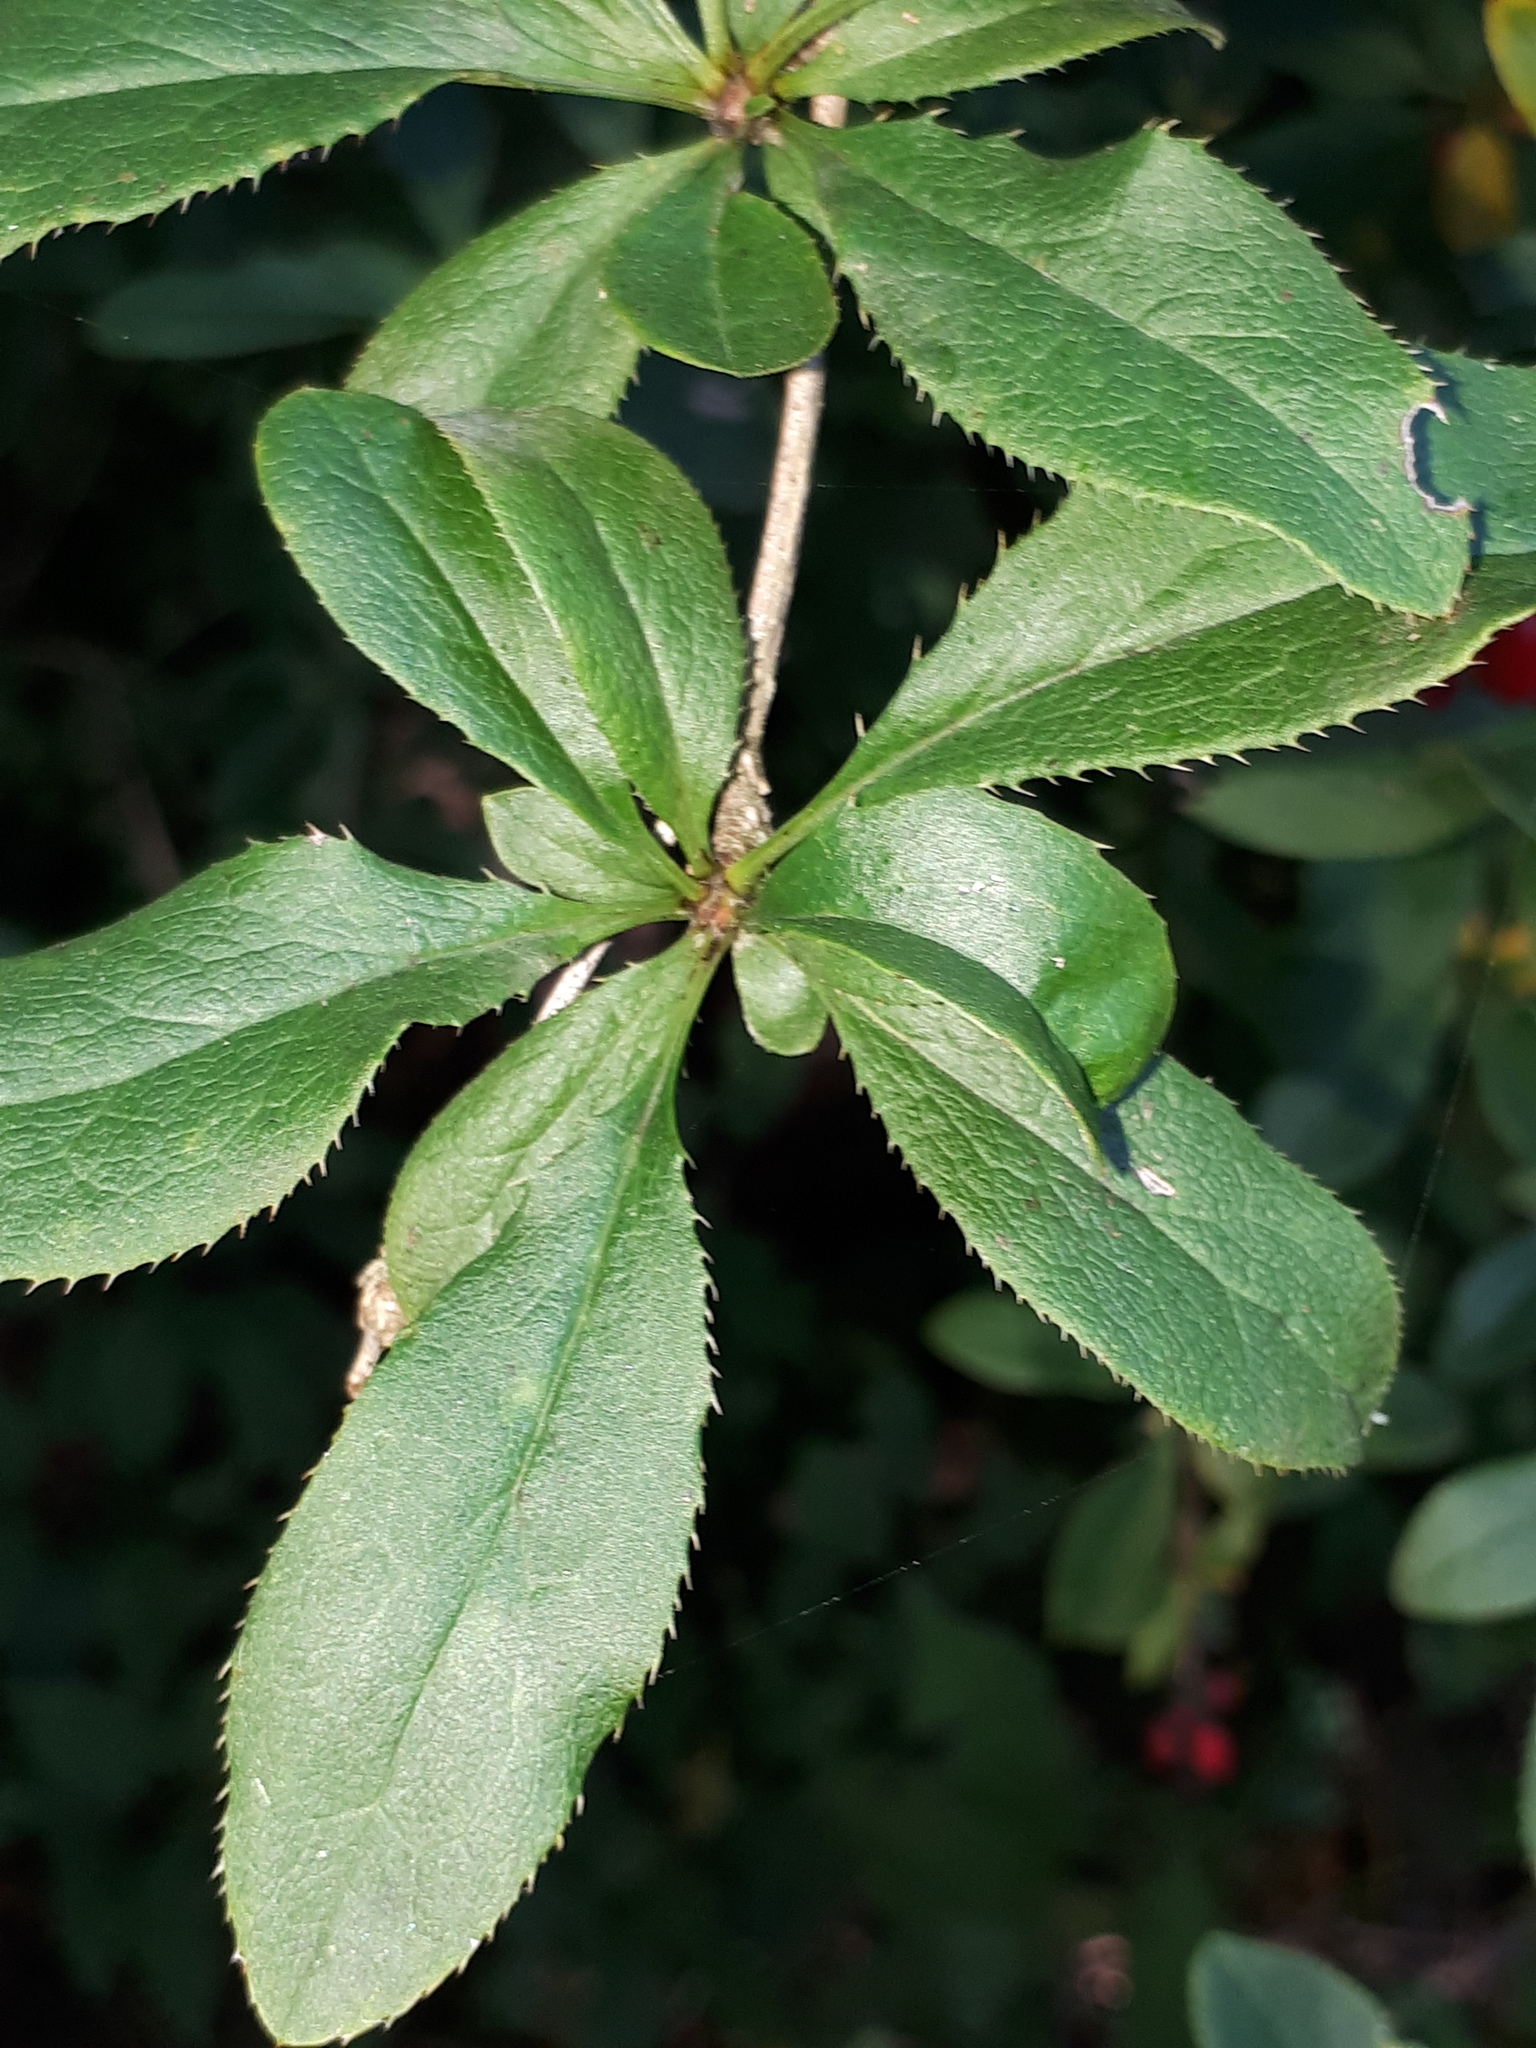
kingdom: Plantae
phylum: Tracheophyta
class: Magnoliopsida
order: Ranunculales
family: Berberidaceae
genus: Berberis
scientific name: Berberis vulgaris
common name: Barberry
